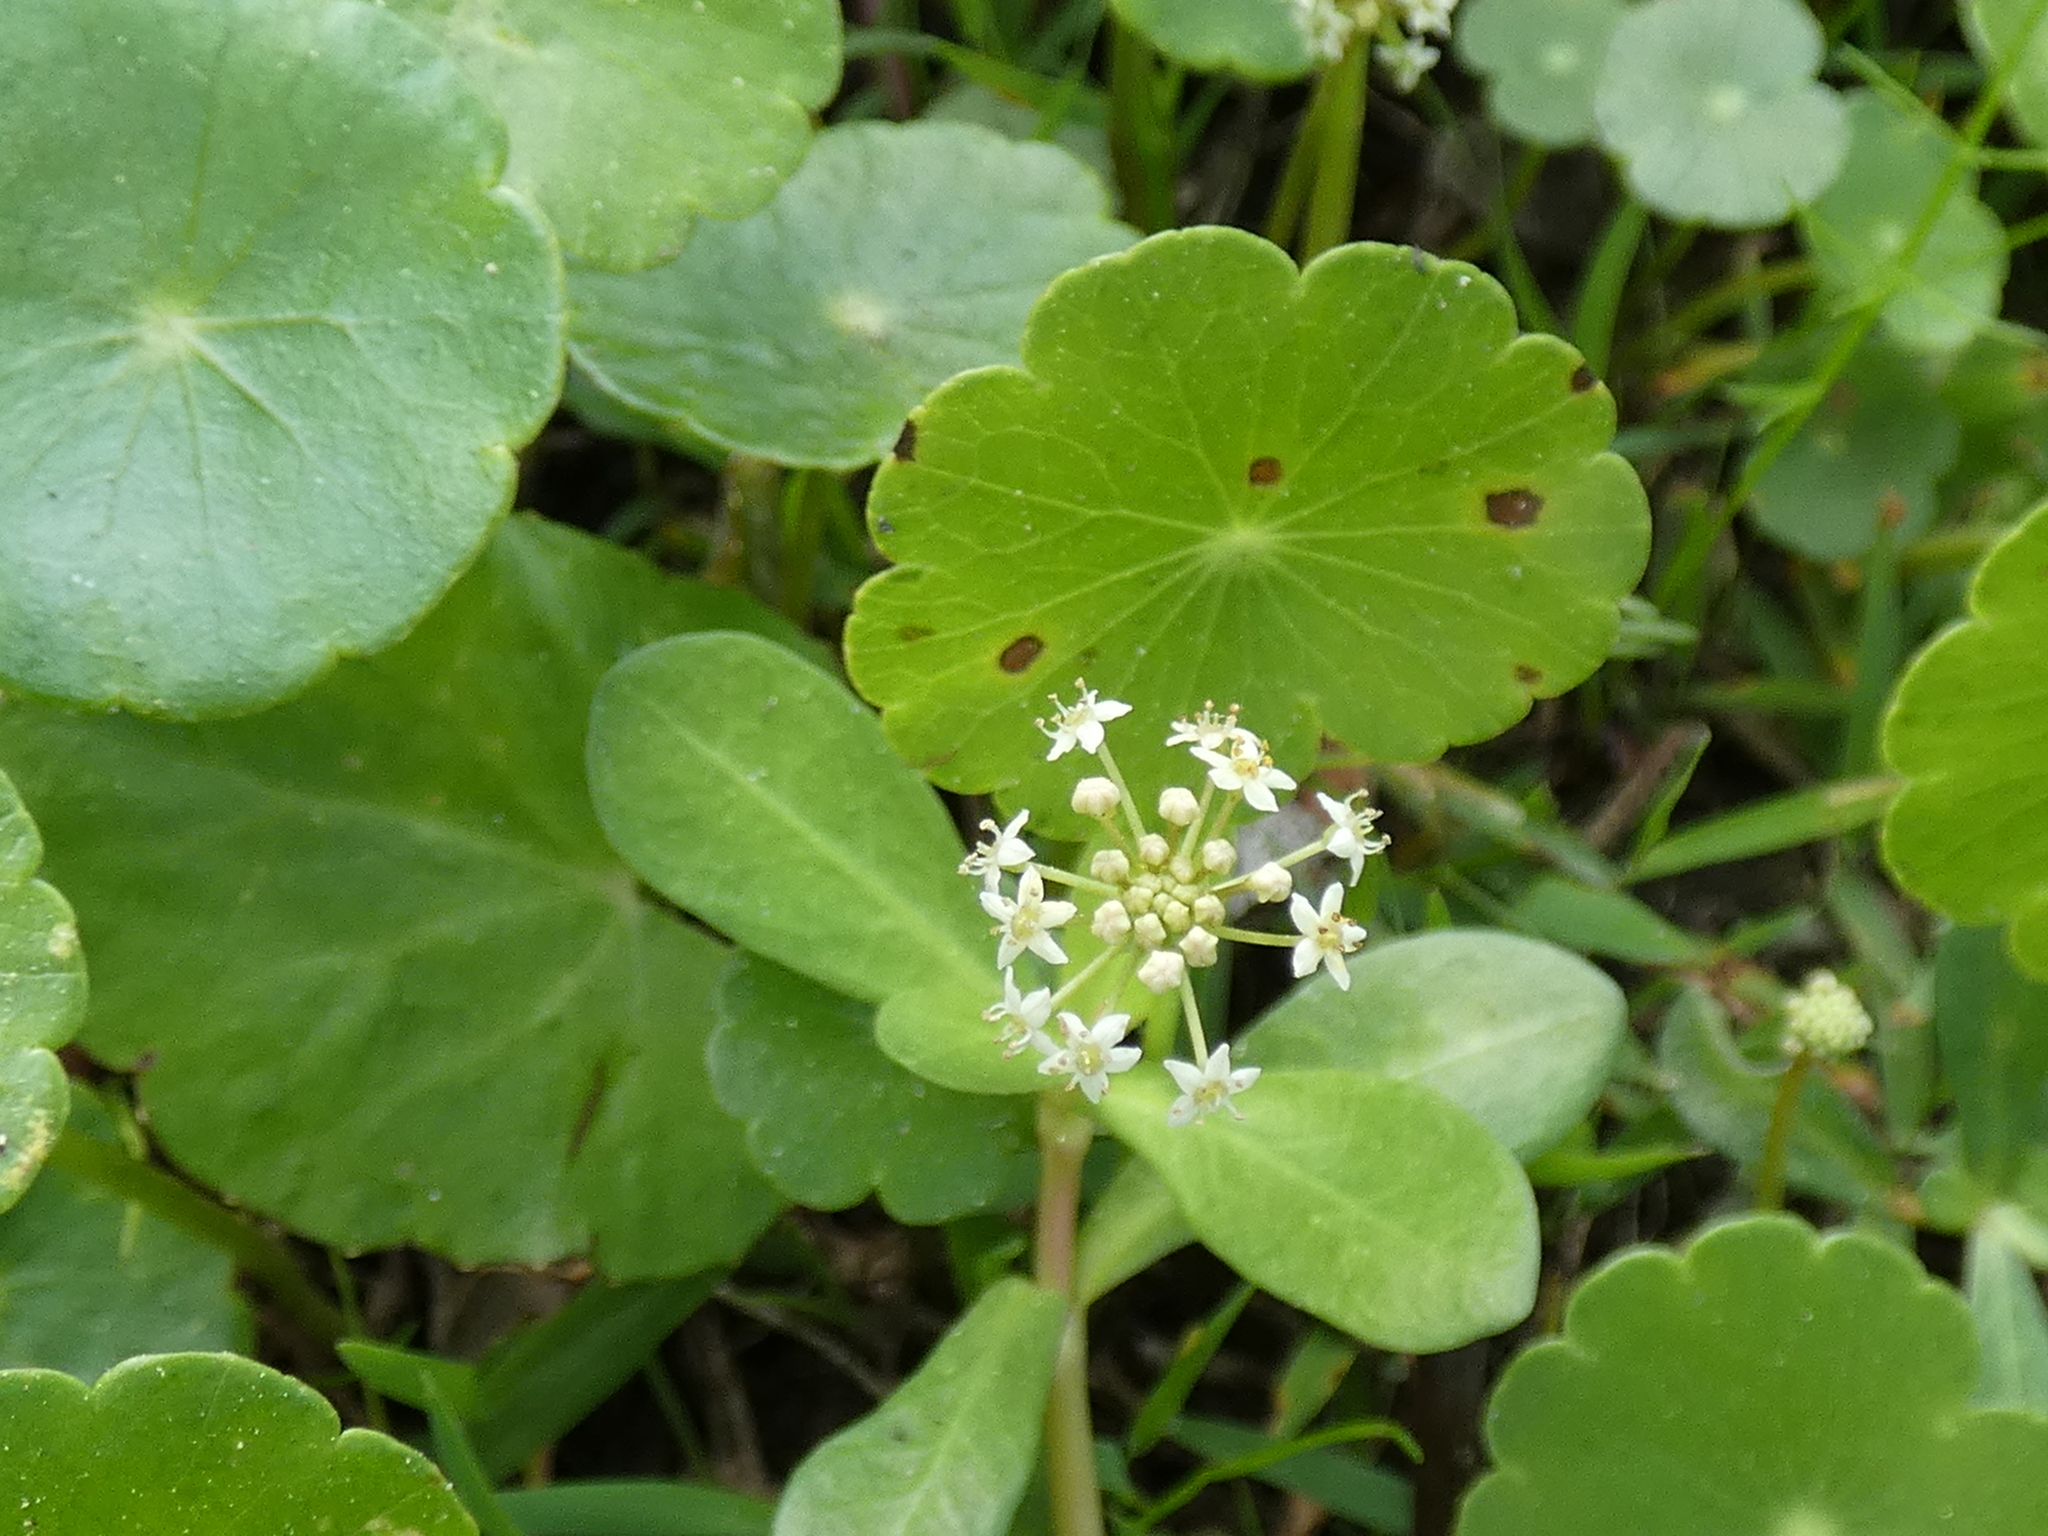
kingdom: Plantae
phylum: Tracheophyta
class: Magnoliopsida
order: Apiales
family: Araliaceae
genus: Hydrocotyle
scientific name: Hydrocotyle umbellata
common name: Water pennywort
